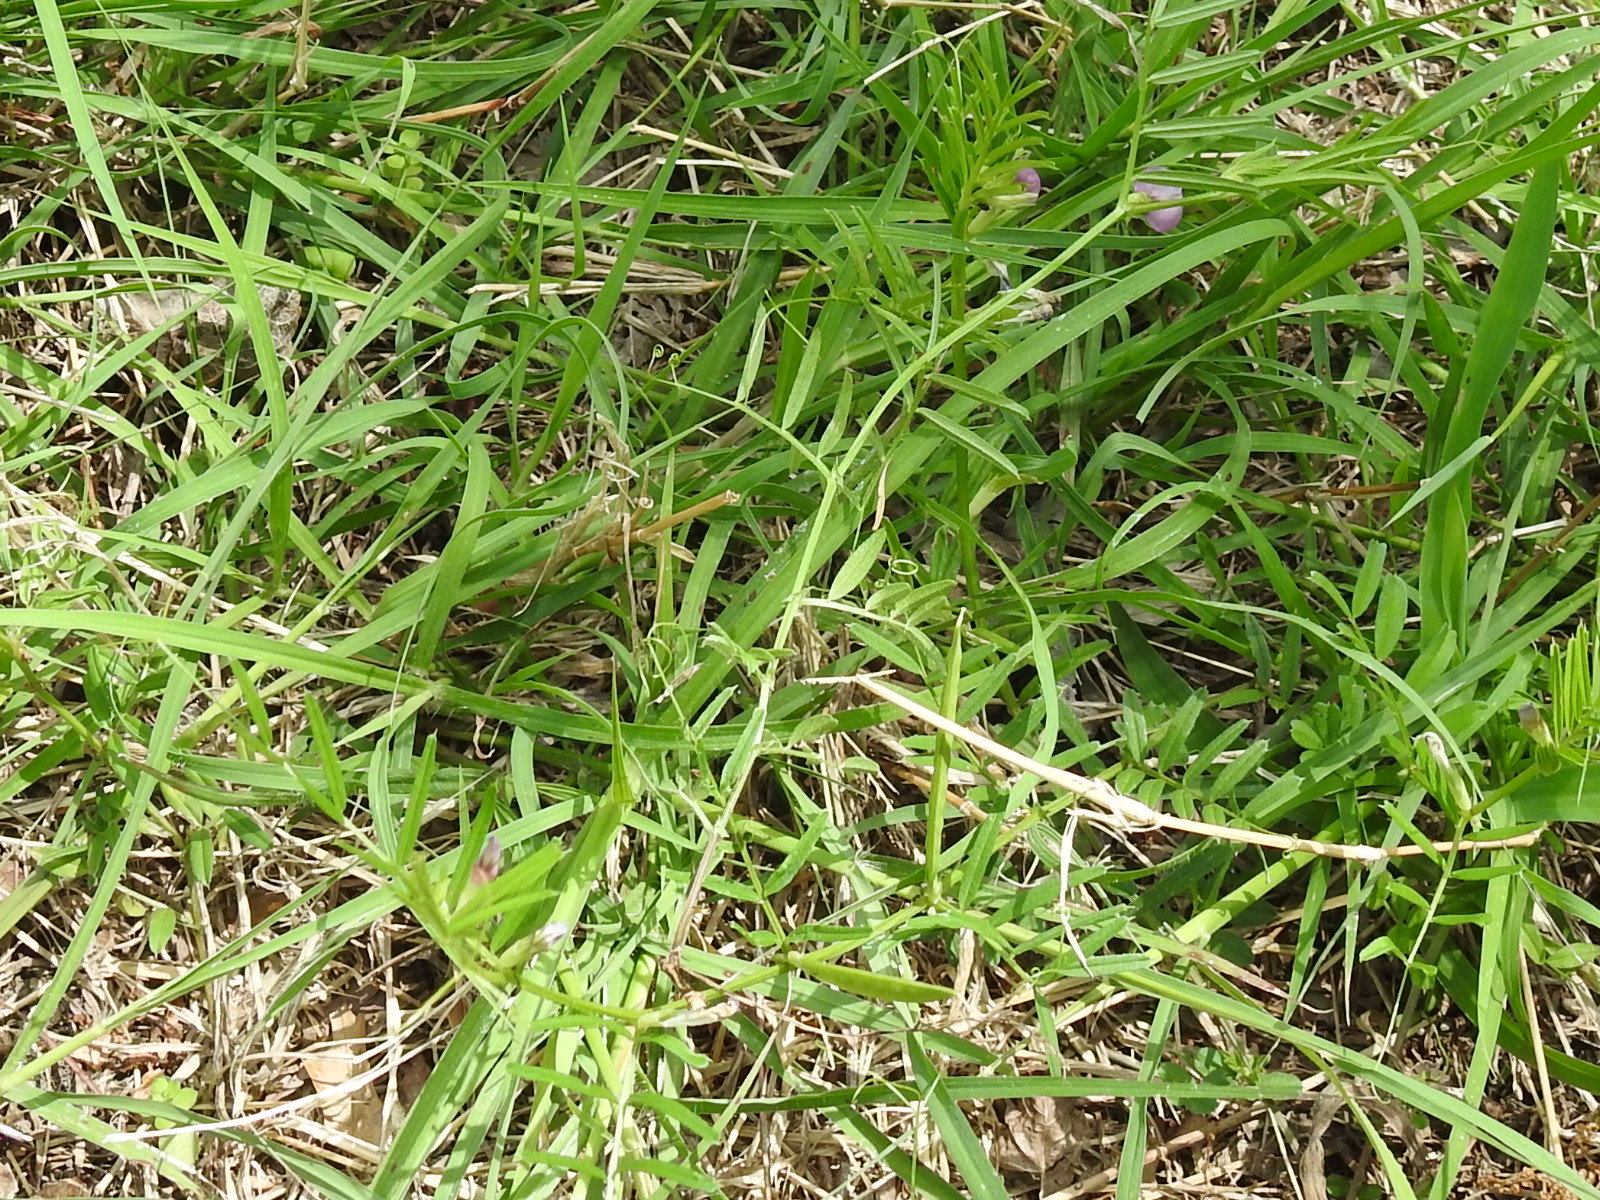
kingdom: Plantae
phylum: Tracheophyta
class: Magnoliopsida
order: Fabales
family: Fabaceae
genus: Vicia
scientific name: Vicia sativa
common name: Garden vetch
